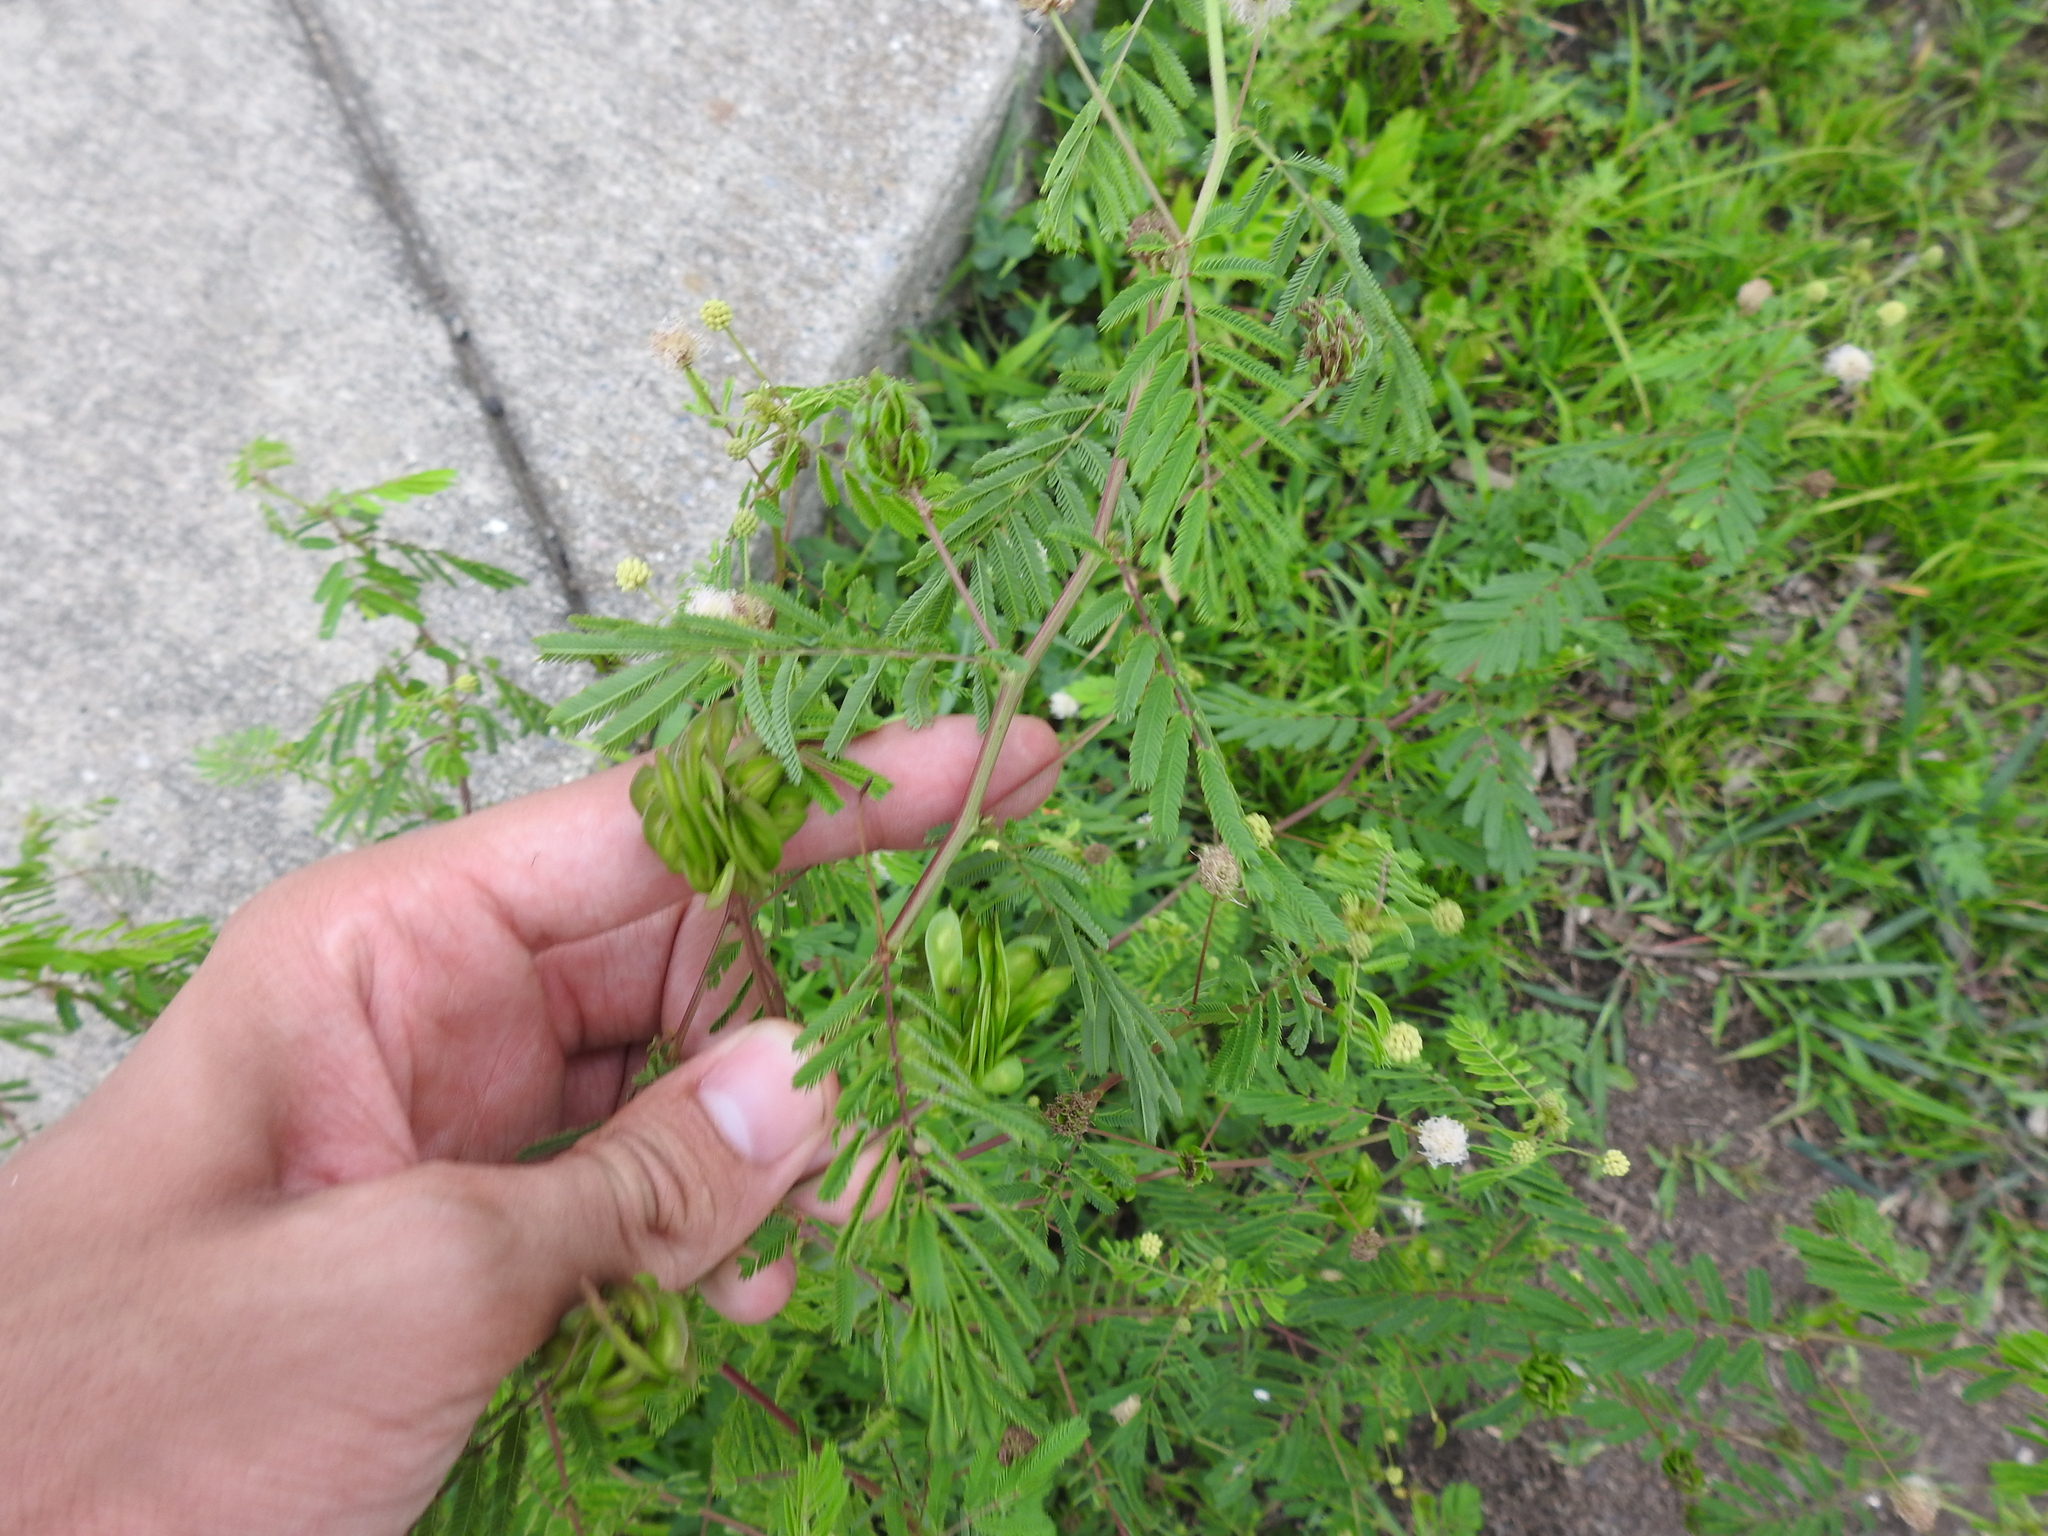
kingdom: Plantae
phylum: Tracheophyta
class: Magnoliopsida
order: Fabales
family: Fabaceae
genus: Desmanthus
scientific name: Desmanthus illinoensis
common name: Illinois bundle-flower
